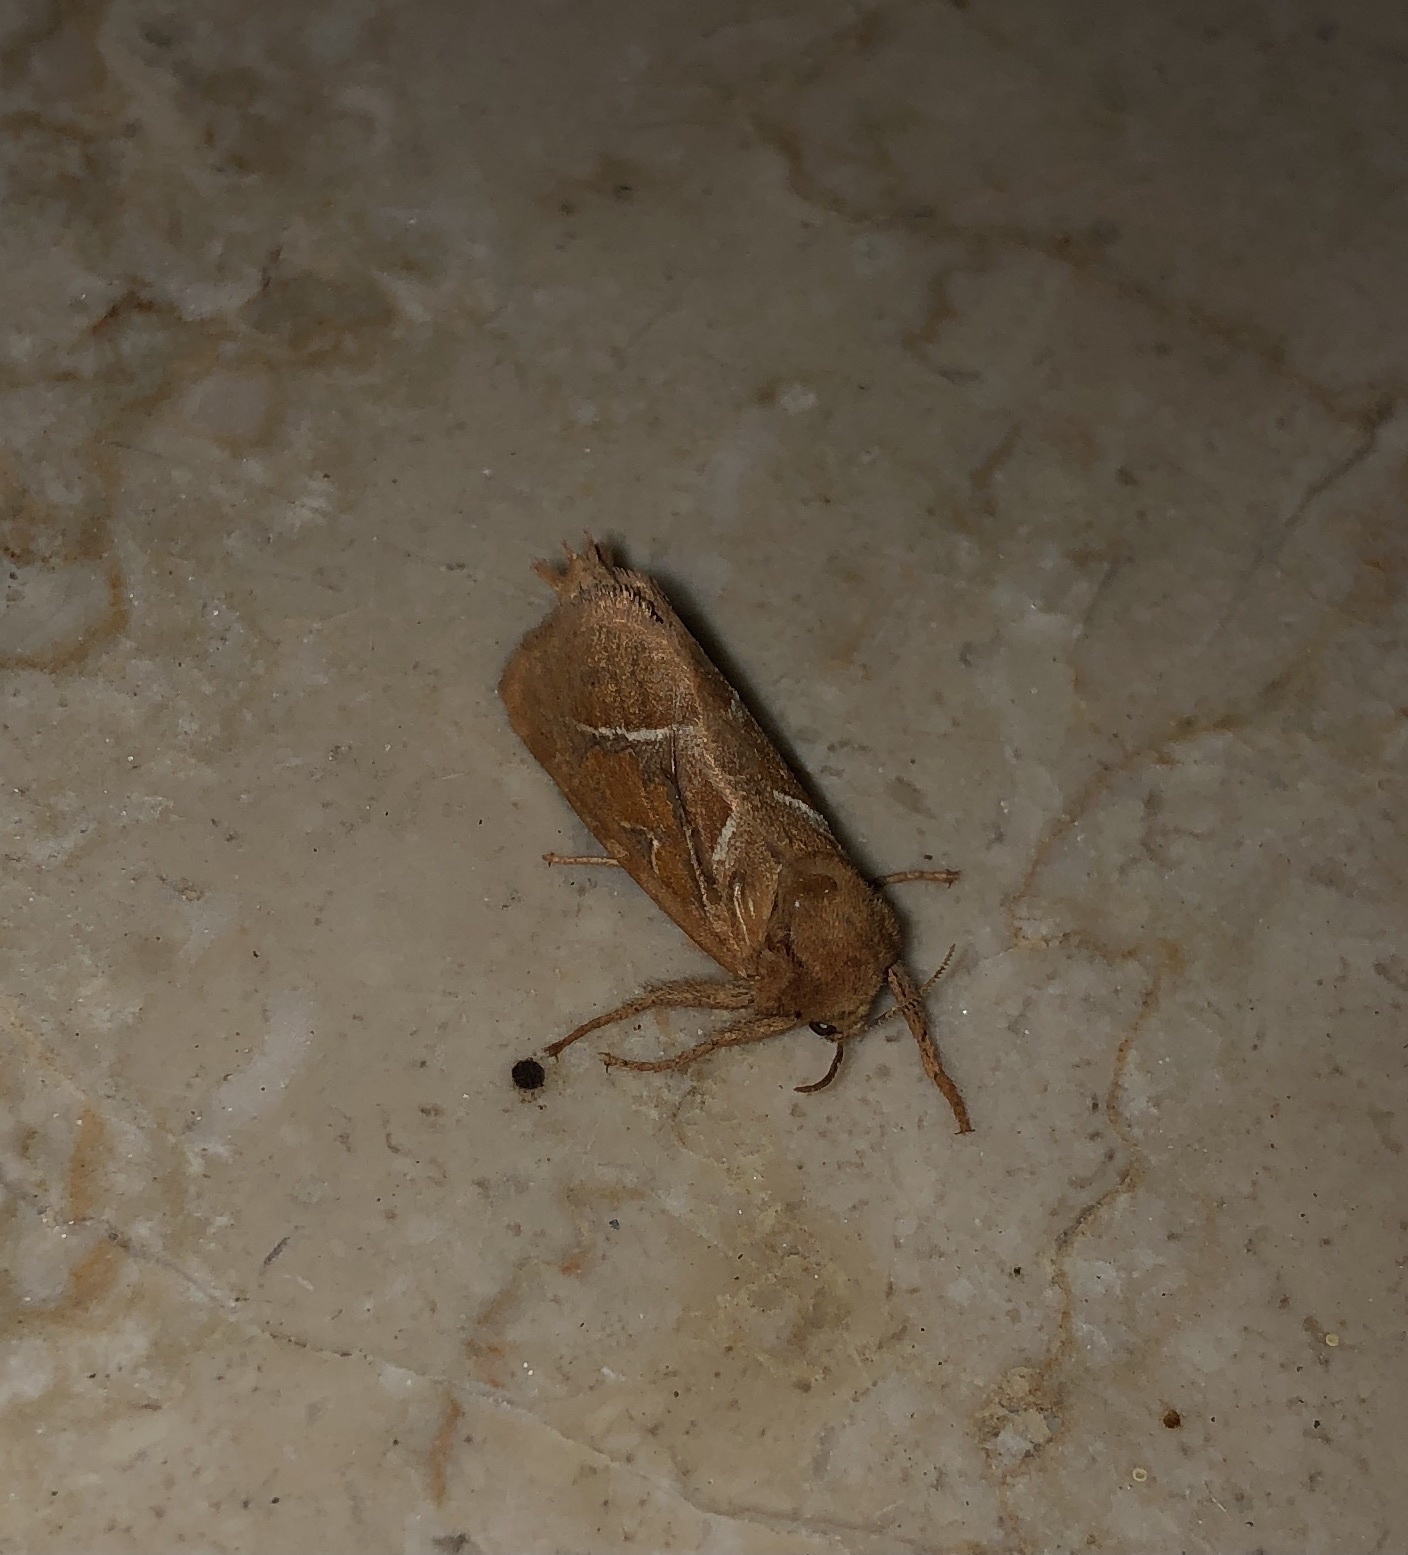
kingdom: Animalia
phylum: Arthropoda
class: Insecta
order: Lepidoptera
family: Hepialidae
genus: Triodia
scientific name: Triodia sylvina
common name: Orange swift
